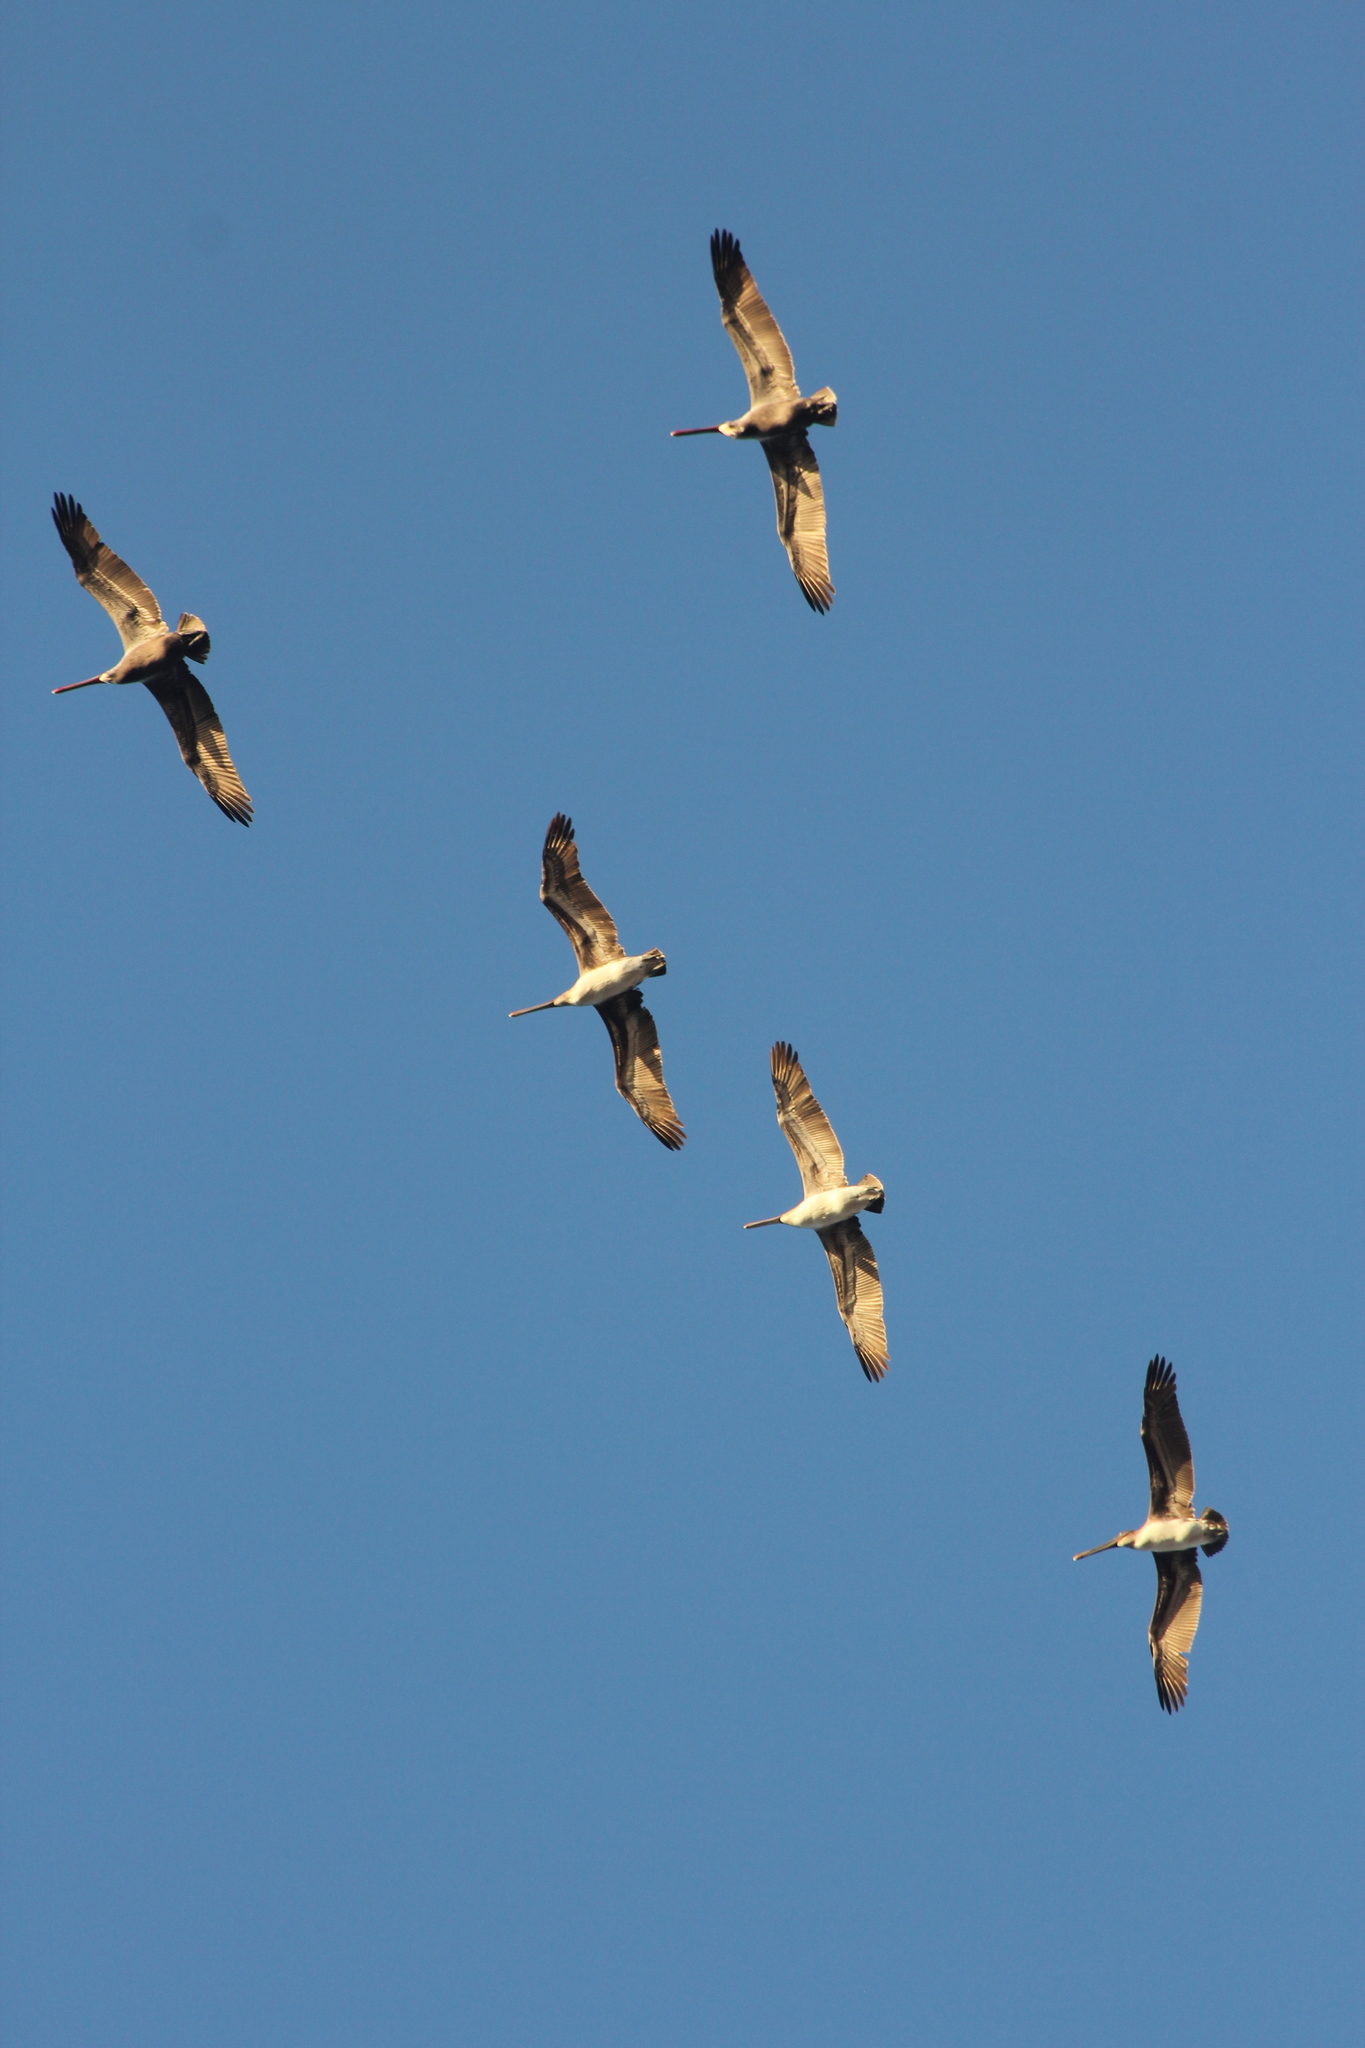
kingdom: Animalia
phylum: Chordata
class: Aves
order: Pelecaniformes
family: Pelecanidae
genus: Pelecanus
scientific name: Pelecanus occidentalis
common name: Brown pelican
